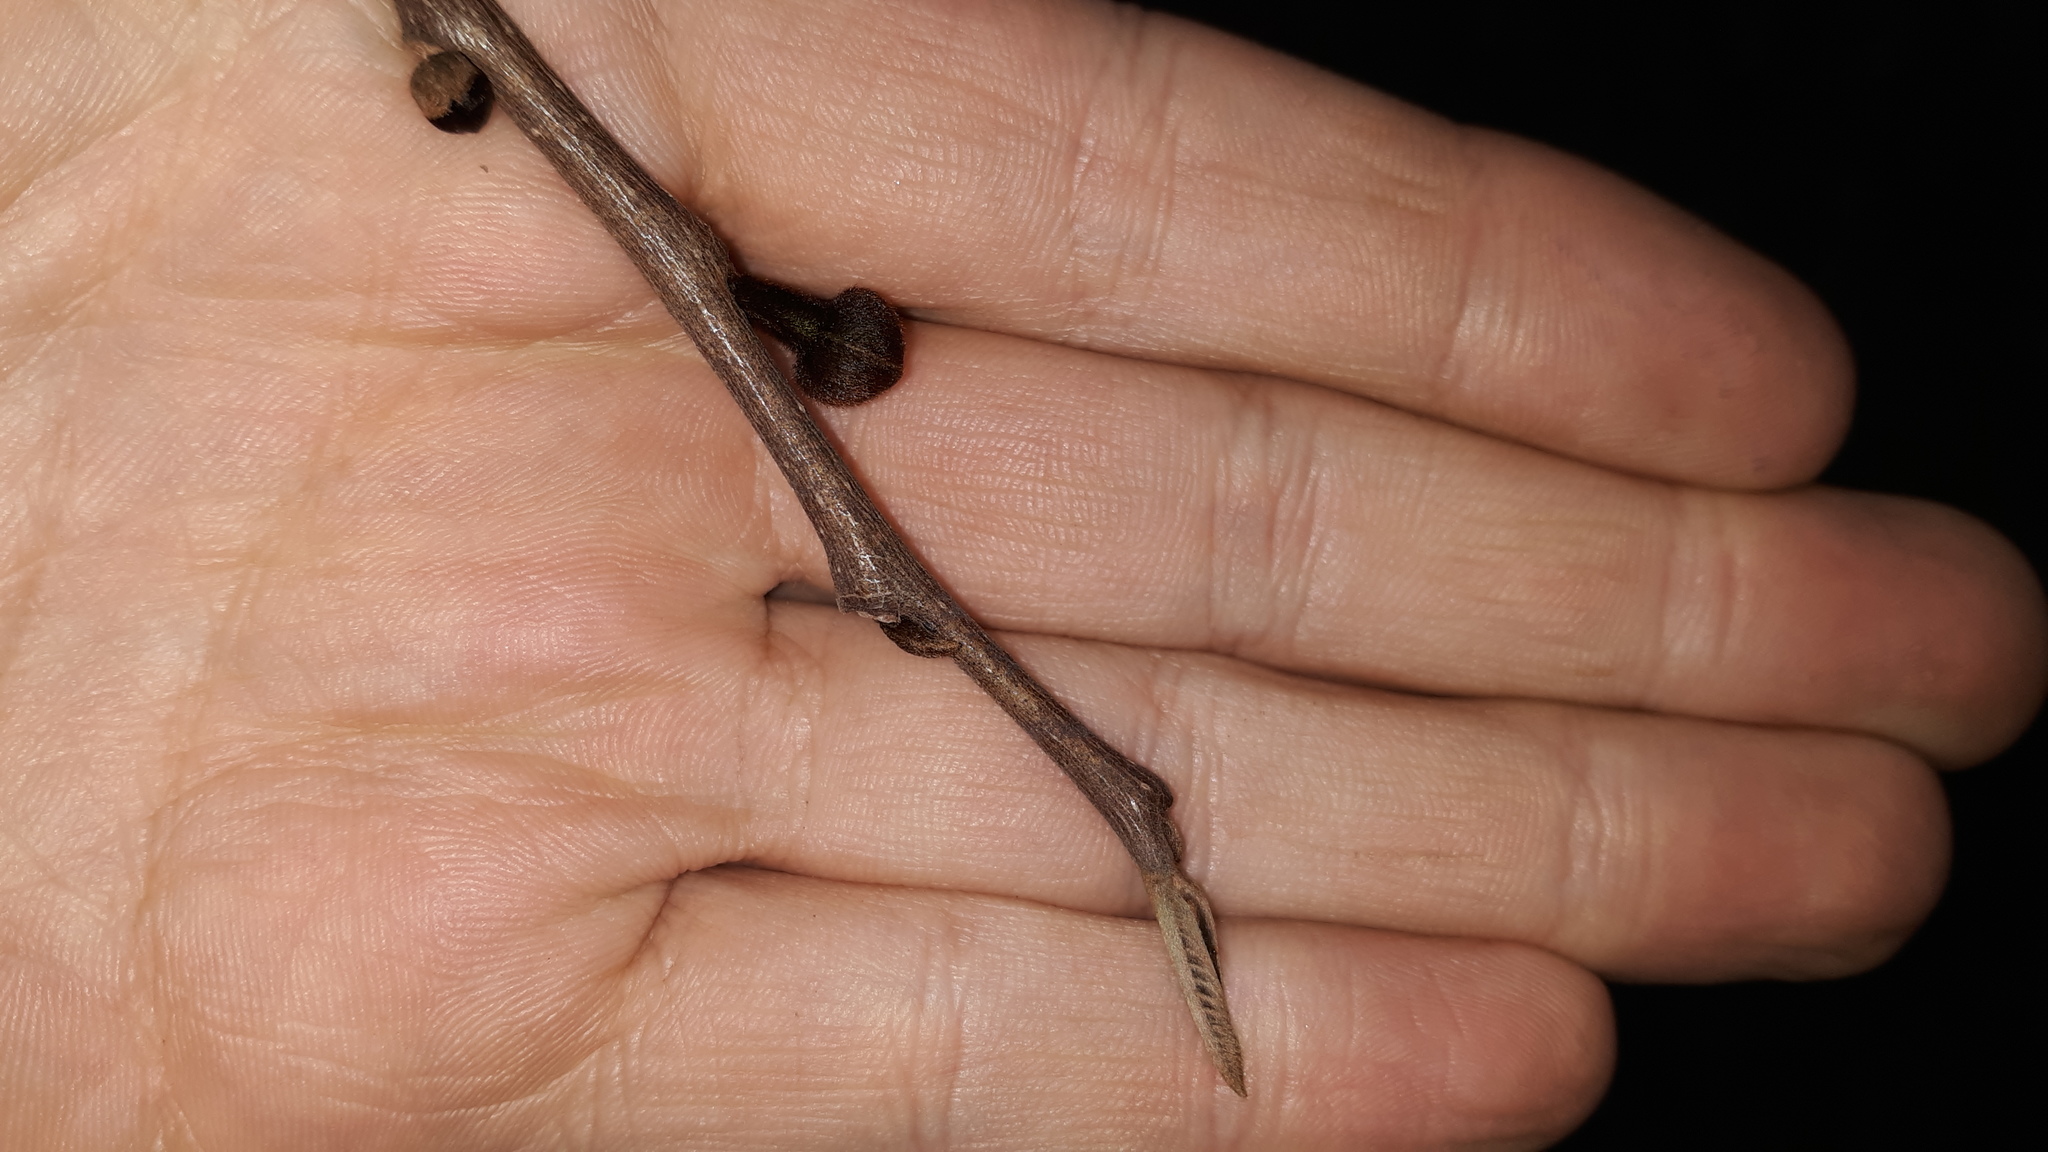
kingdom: Plantae
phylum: Tracheophyta
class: Magnoliopsida
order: Magnoliales
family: Annonaceae
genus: Asimina
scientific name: Asimina triloba
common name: Dog-banana
